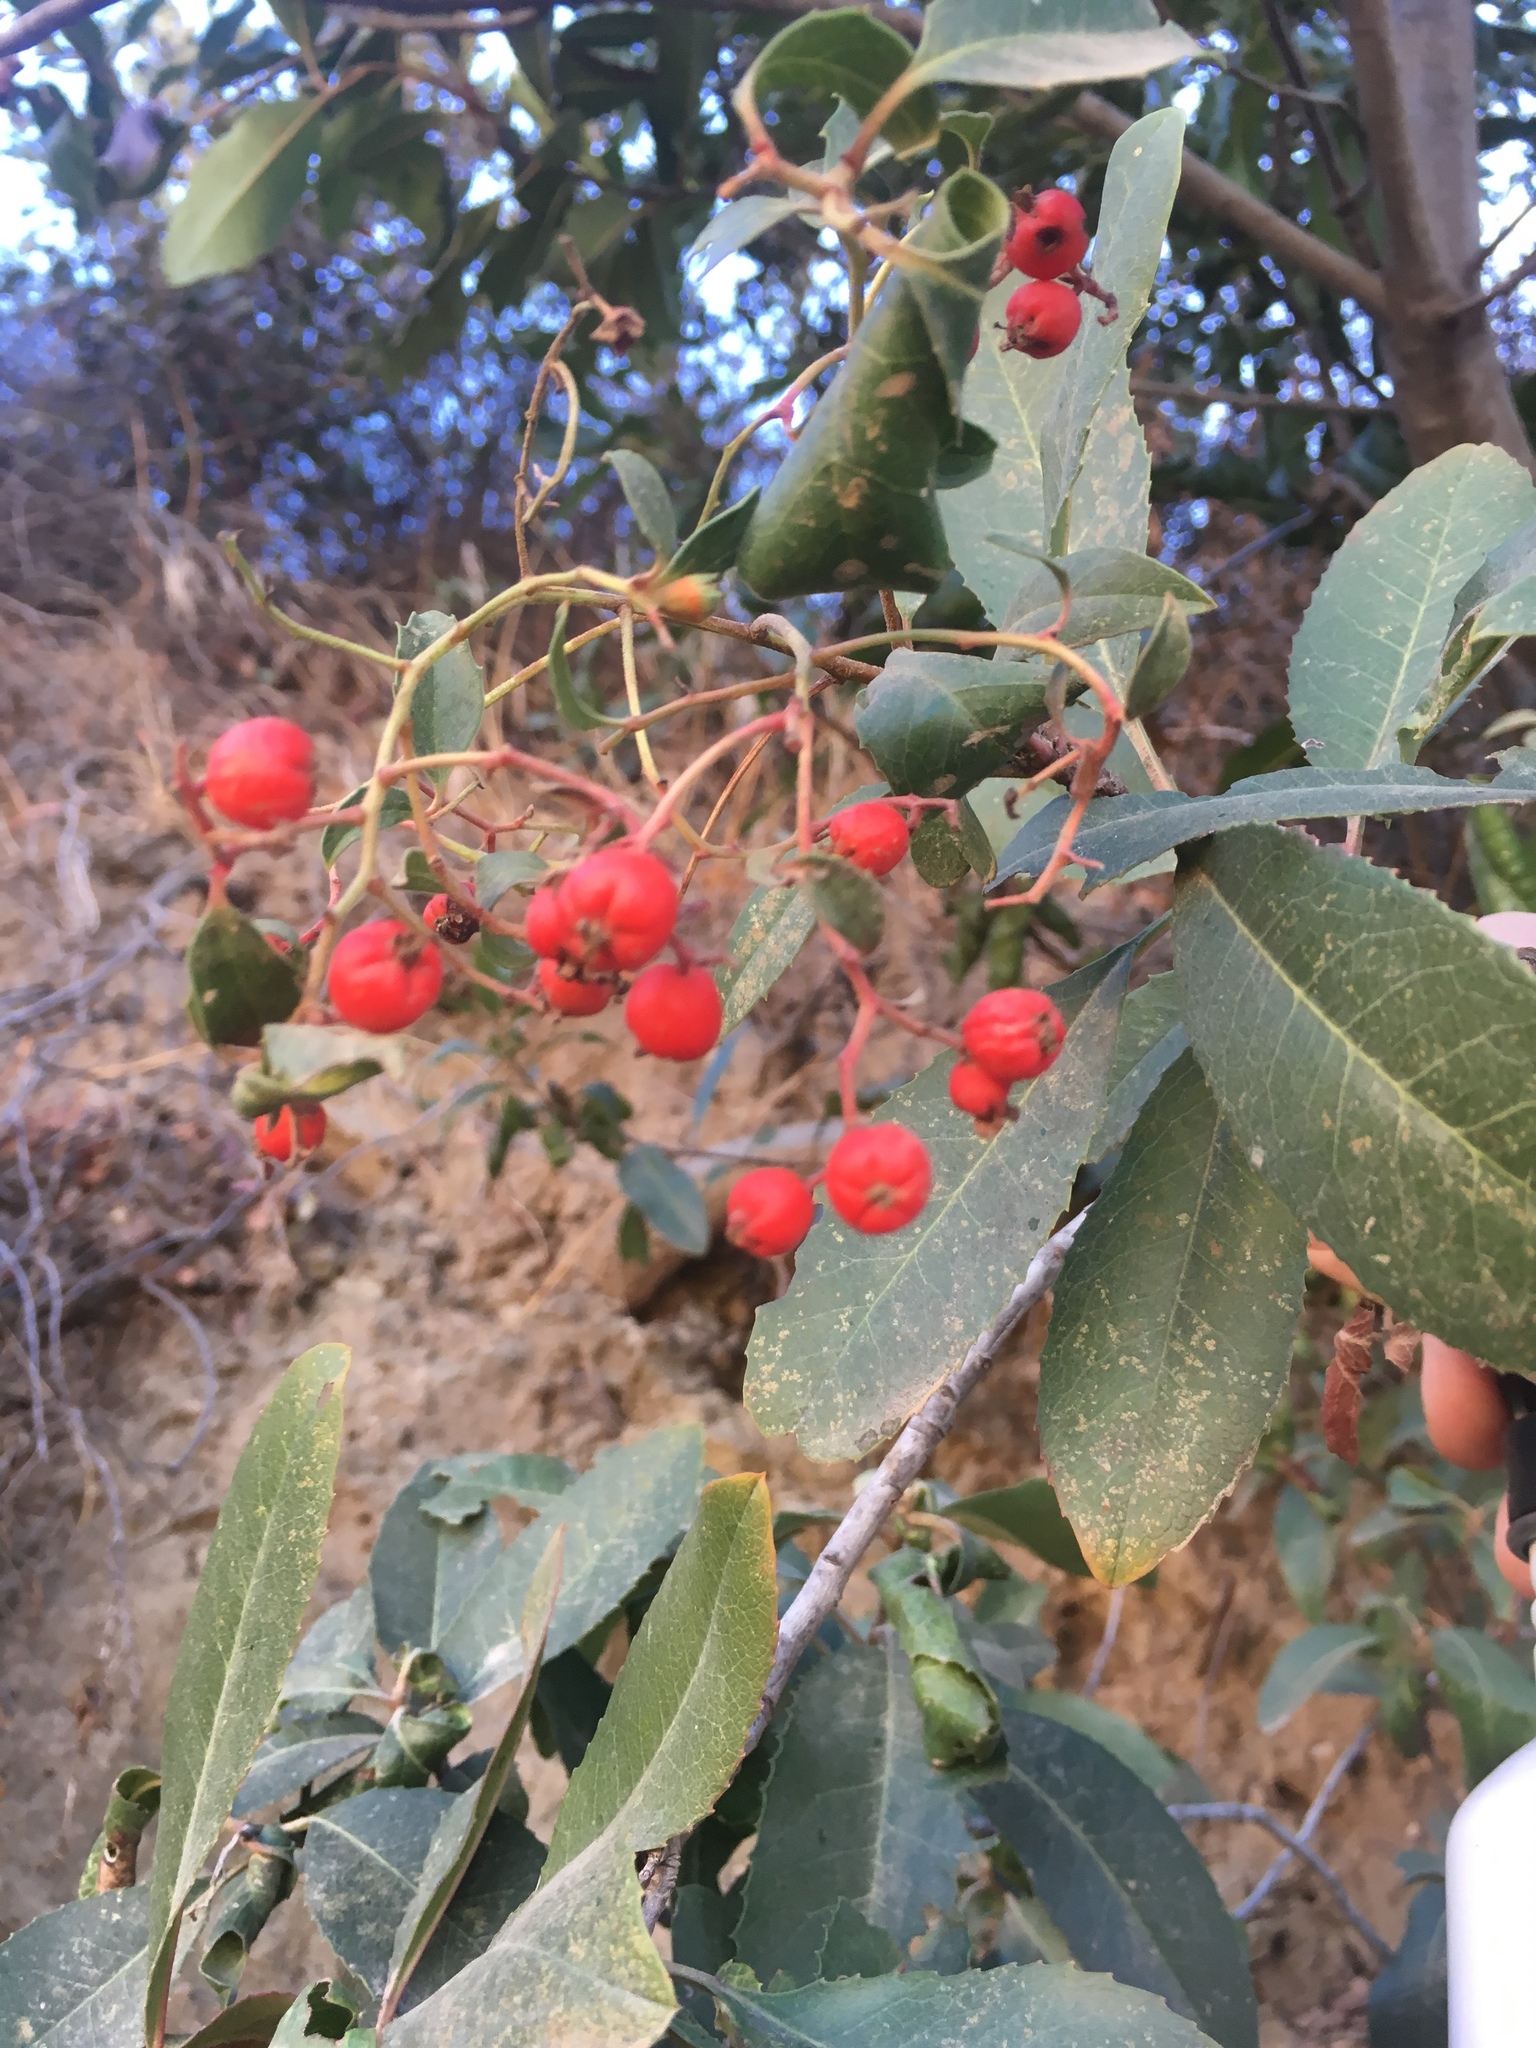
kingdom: Plantae
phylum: Tracheophyta
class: Magnoliopsida
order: Rosales
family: Rosaceae
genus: Heteromeles
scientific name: Heteromeles arbutifolia
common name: California-holly
